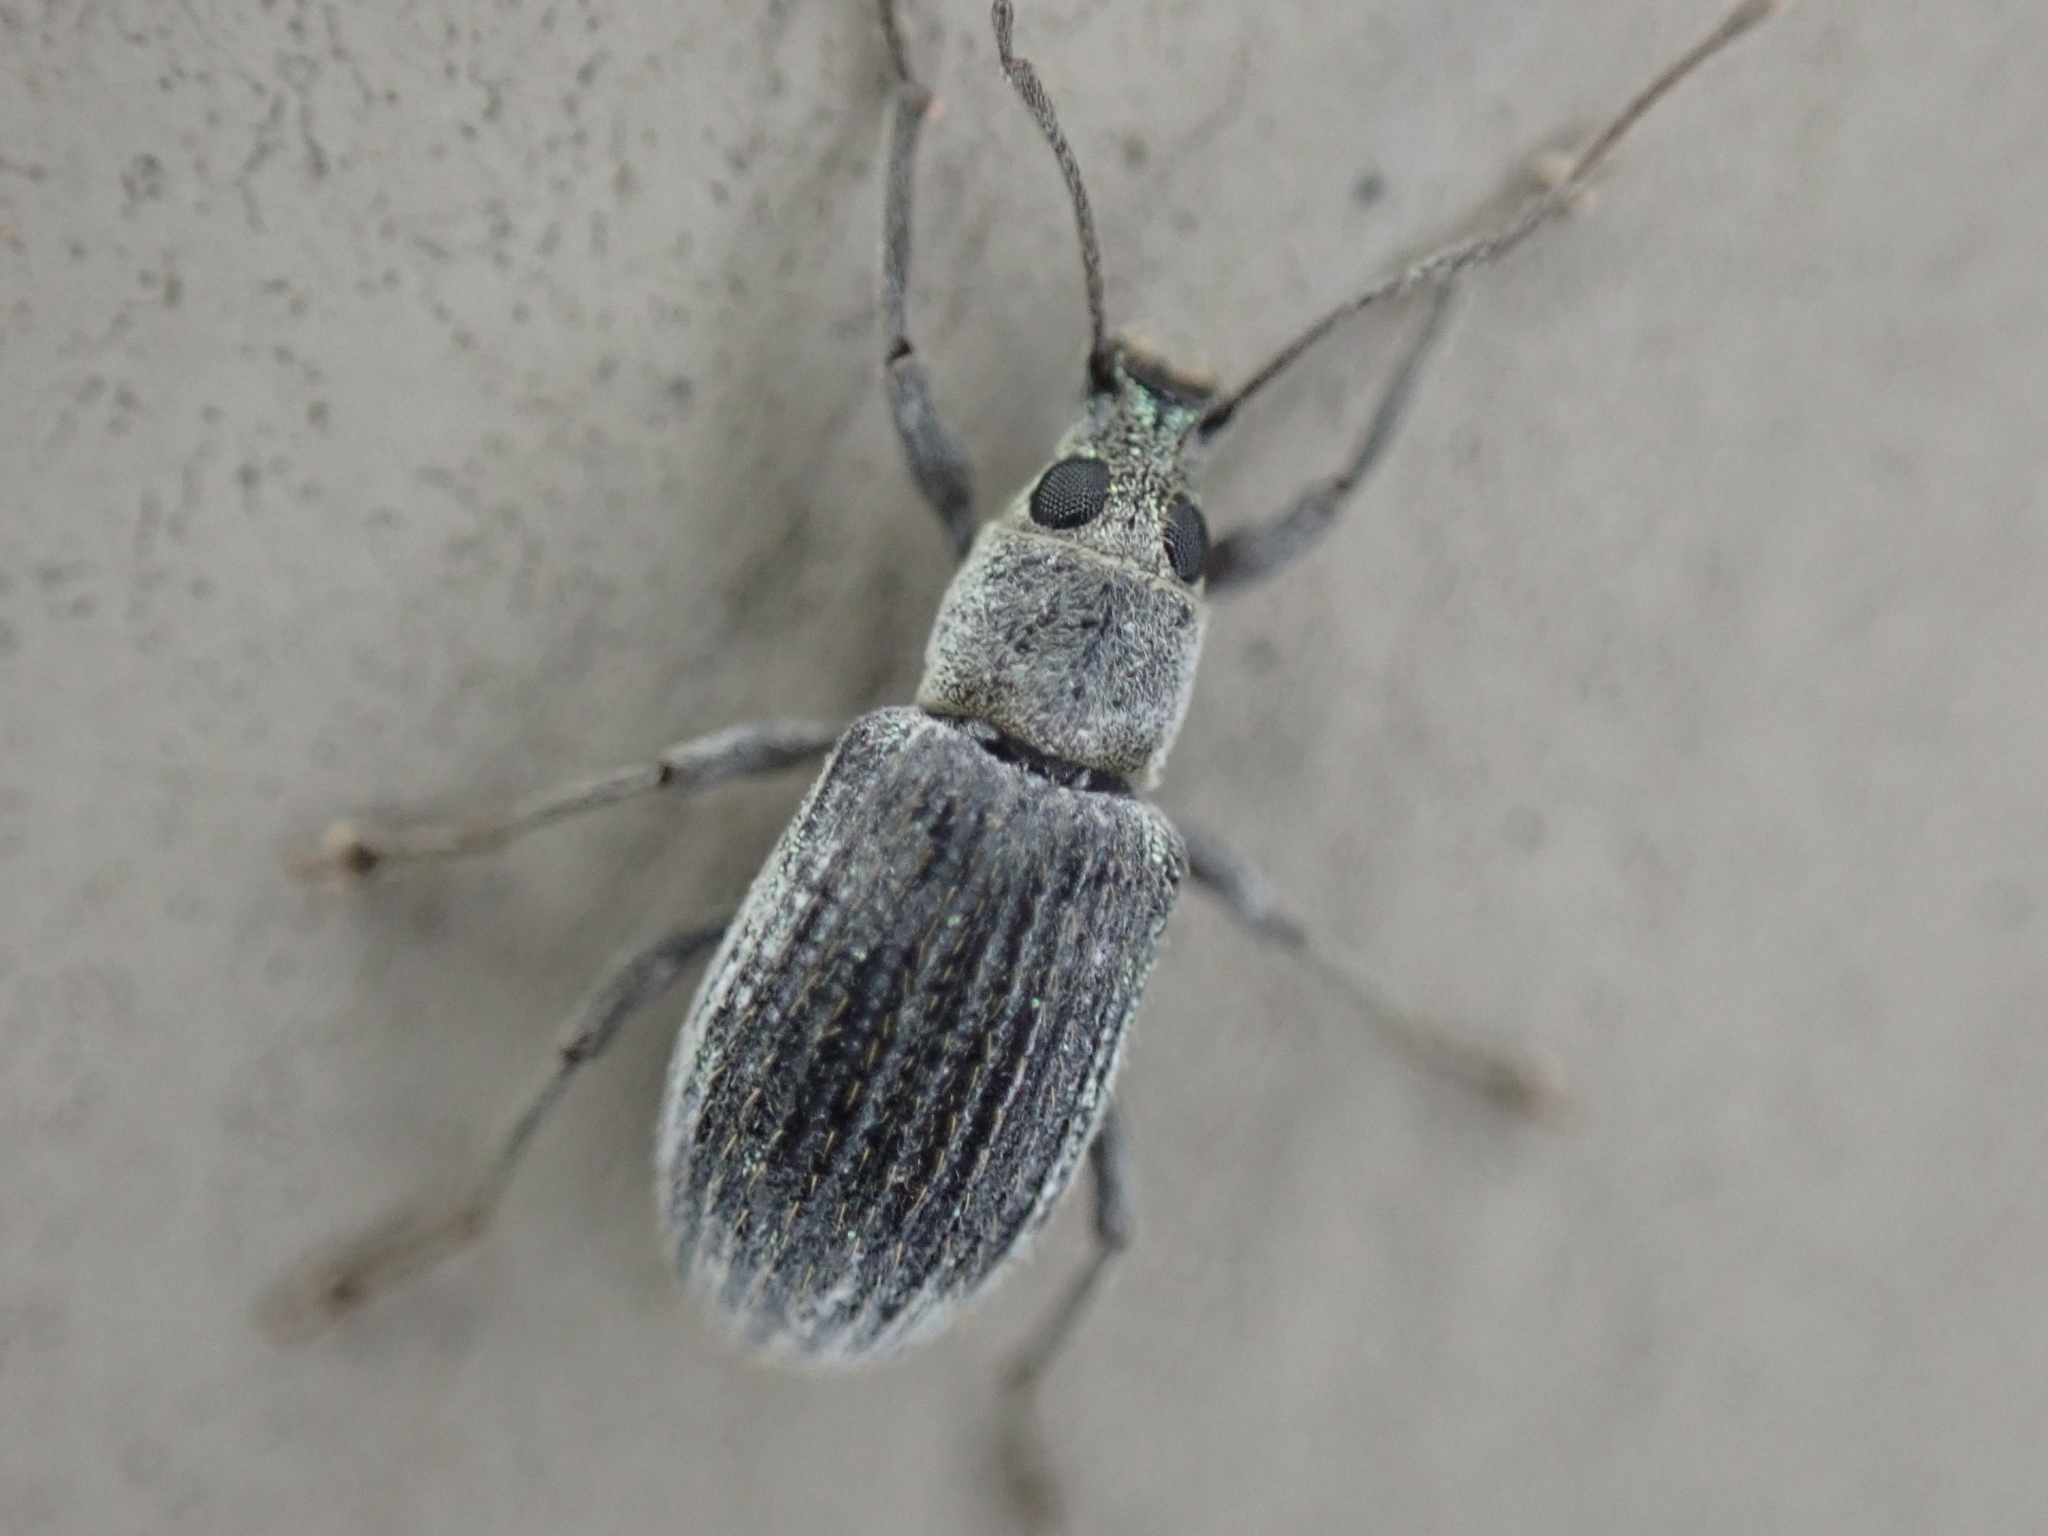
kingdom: Animalia
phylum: Arthropoda
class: Insecta
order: Coleoptera
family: Curculionidae
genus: Cyrtepistomus
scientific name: Cyrtepistomus castaneus
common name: Weevil
